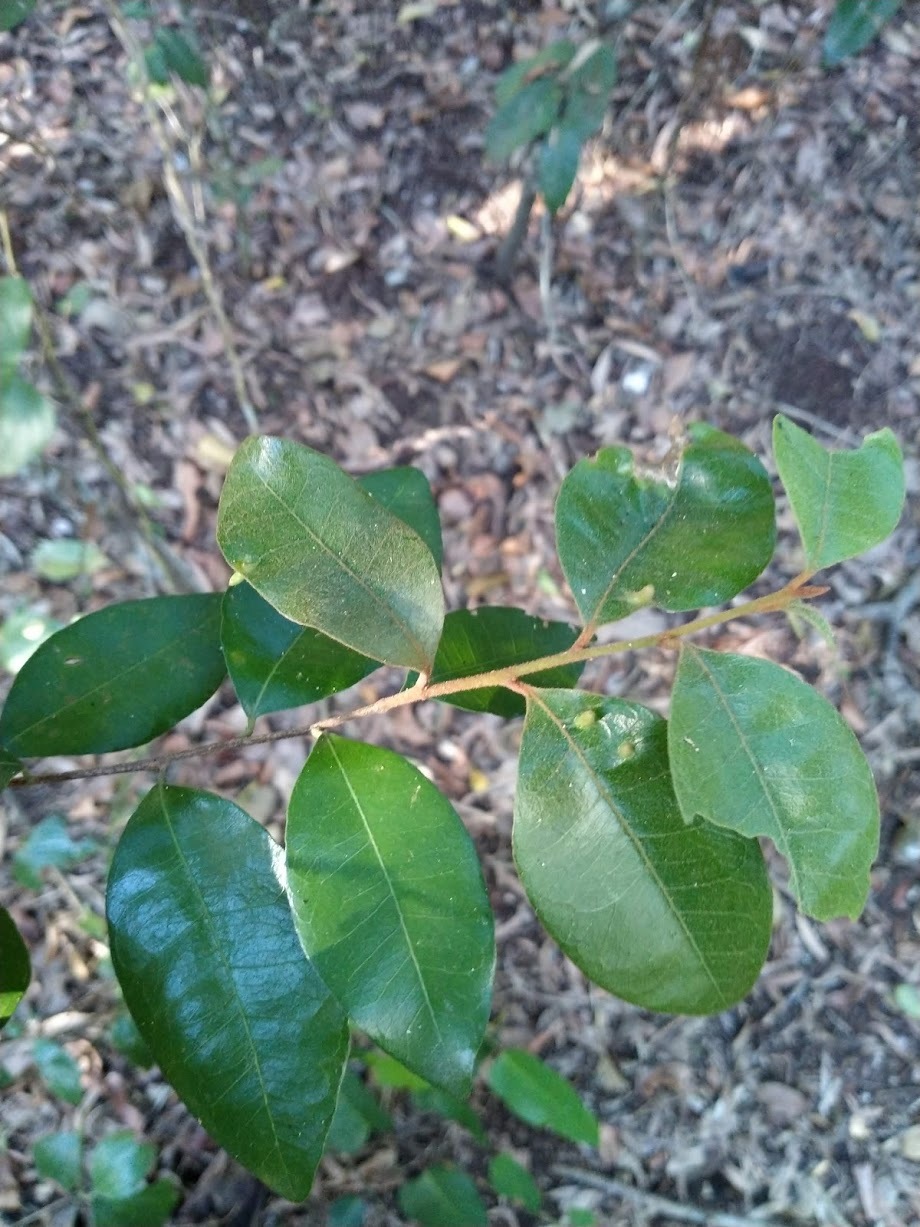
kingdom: Plantae
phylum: Tracheophyta
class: Magnoliopsida
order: Ericales
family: Sapotaceae
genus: Planchonella
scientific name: Planchonella myrsinifolia
